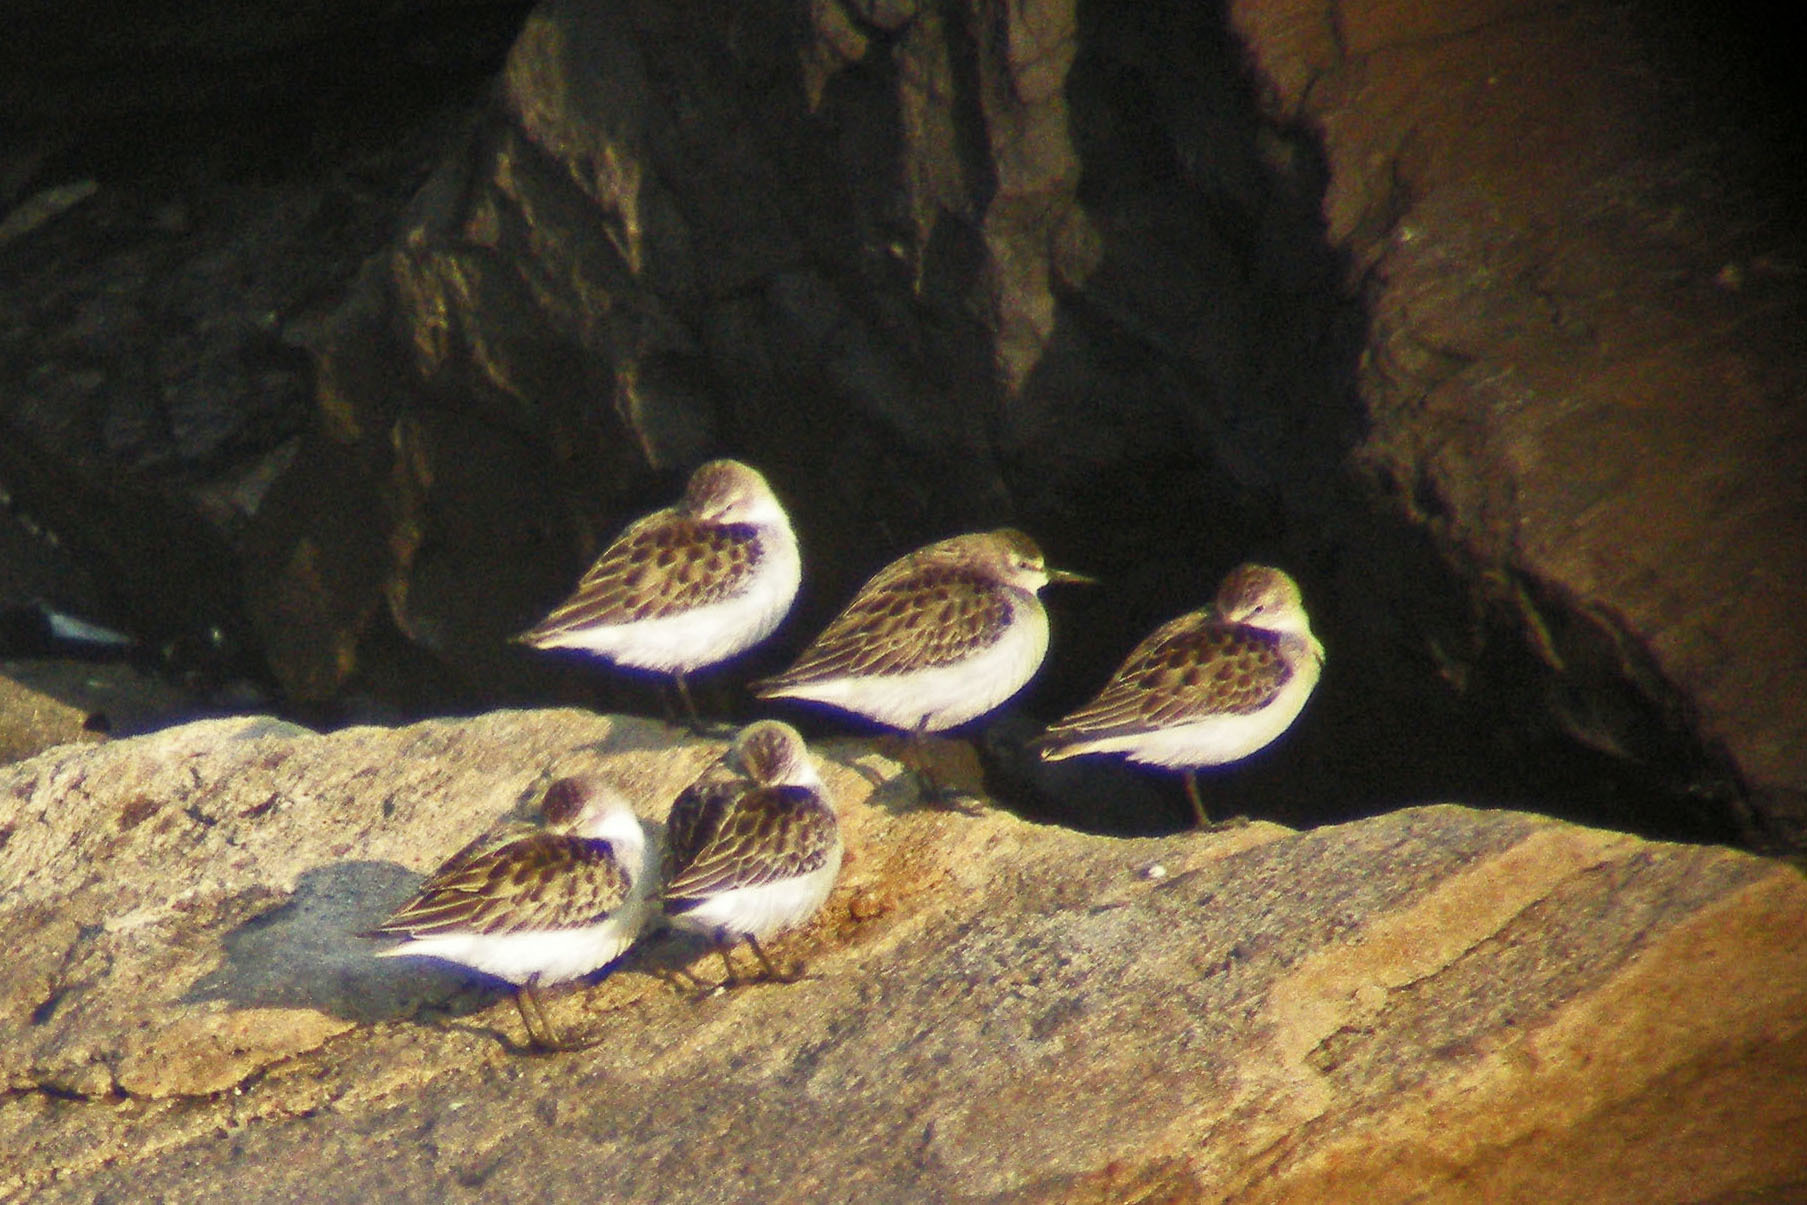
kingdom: Animalia
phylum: Chordata
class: Aves
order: Charadriiformes
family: Scolopacidae
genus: Calidris
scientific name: Calidris pusilla
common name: Semipalmated sandpiper
